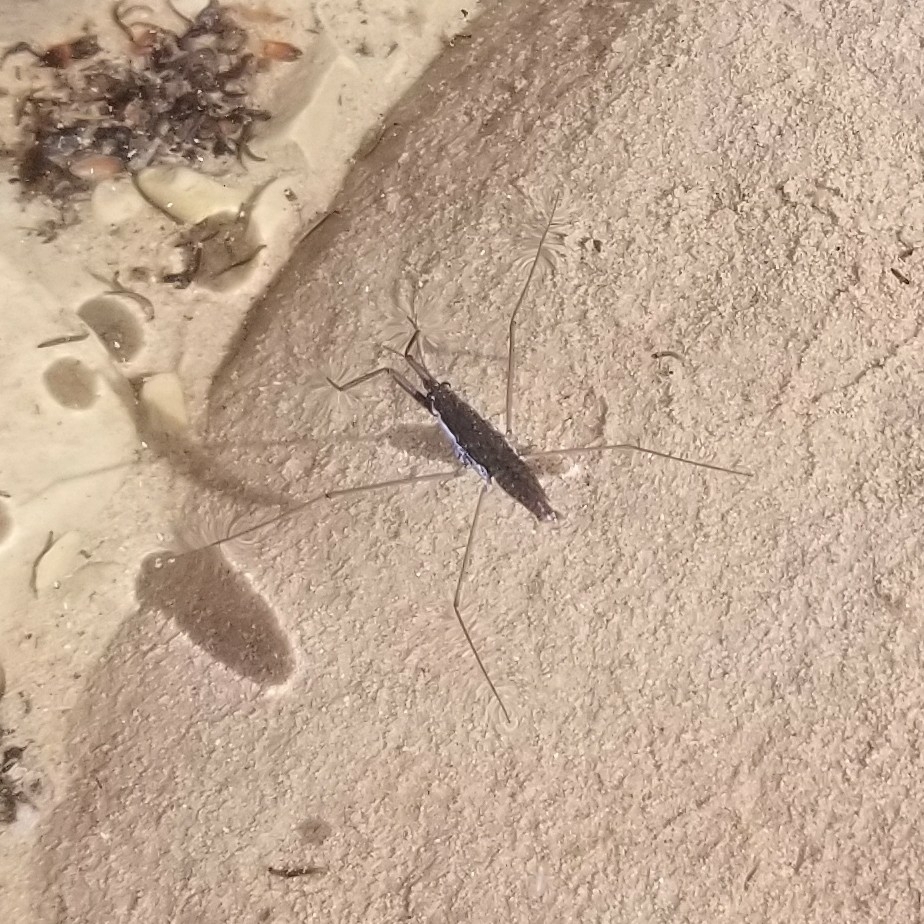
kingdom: Animalia
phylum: Arthropoda
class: Insecta
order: Hemiptera
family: Gerridae
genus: Aquarius
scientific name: Aquarius remigis
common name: Common water strider
